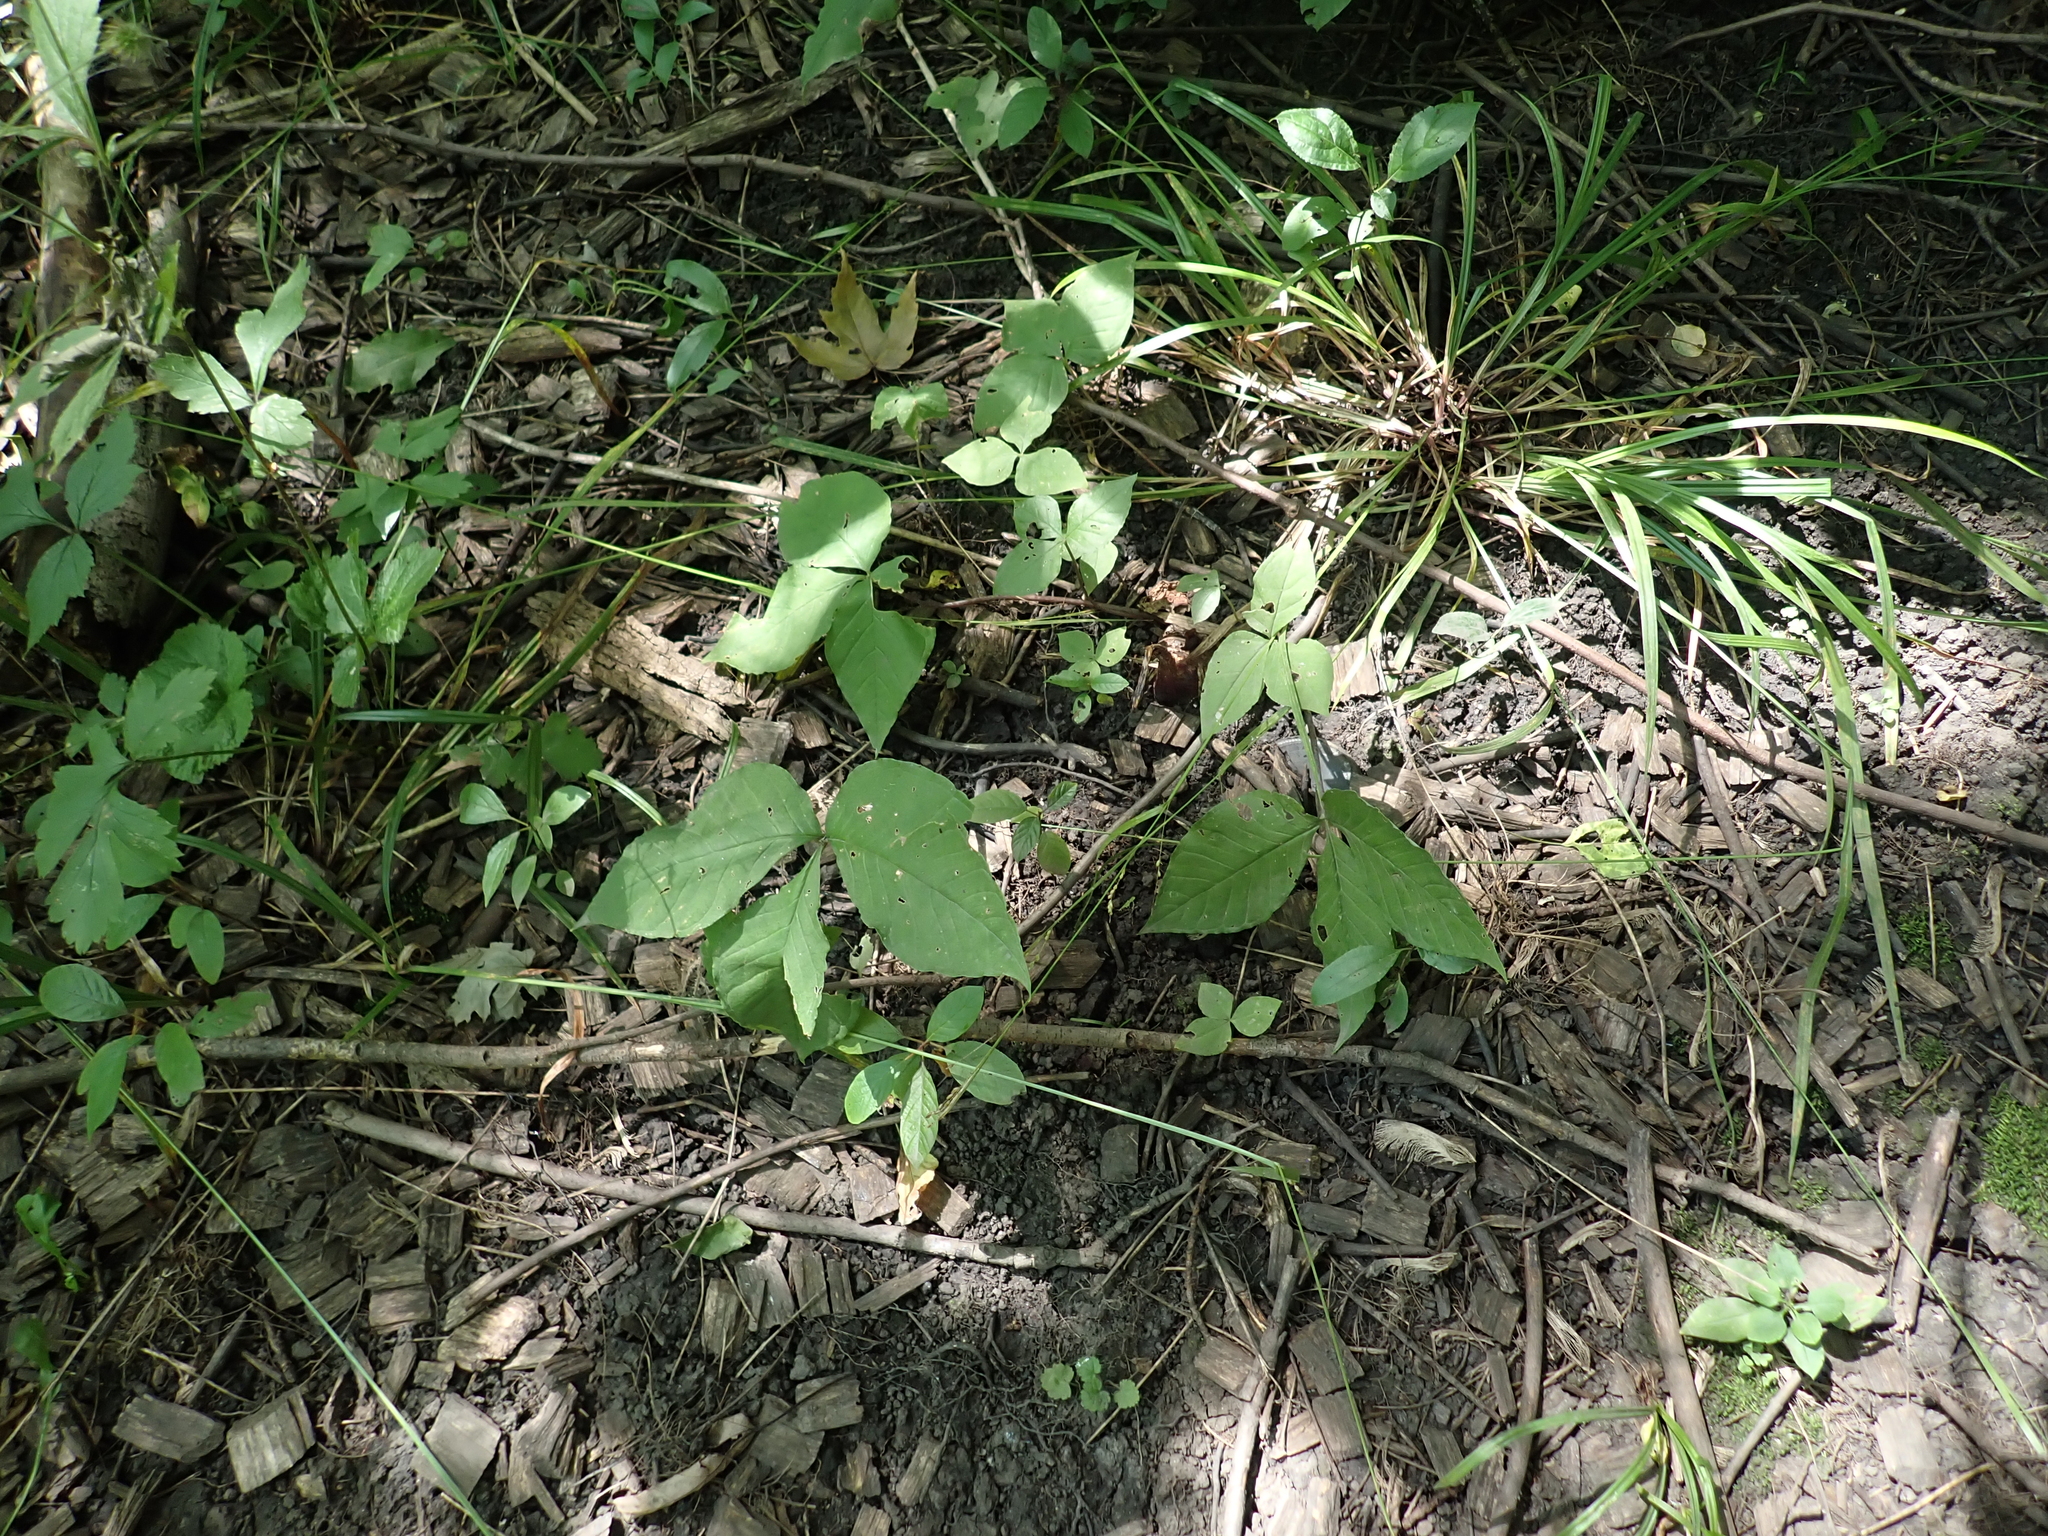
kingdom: Plantae
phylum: Tracheophyta
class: Liliopsida
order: Alismatales
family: Araceae
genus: Arisaema
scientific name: Arisaema triphyllum
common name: Jack-in-the-pulpit
